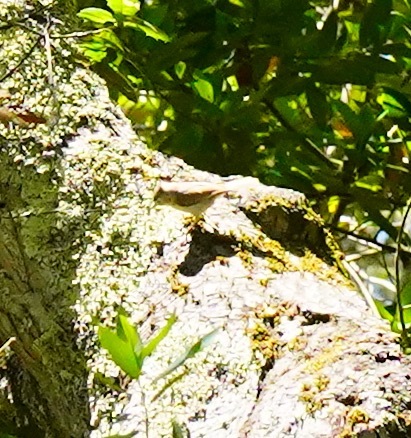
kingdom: Animalia
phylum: Chordata
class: Aves
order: Passeriformes
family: Paridae
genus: Baeolophus
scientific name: Baeolophus inornatus
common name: Oak titmouse
